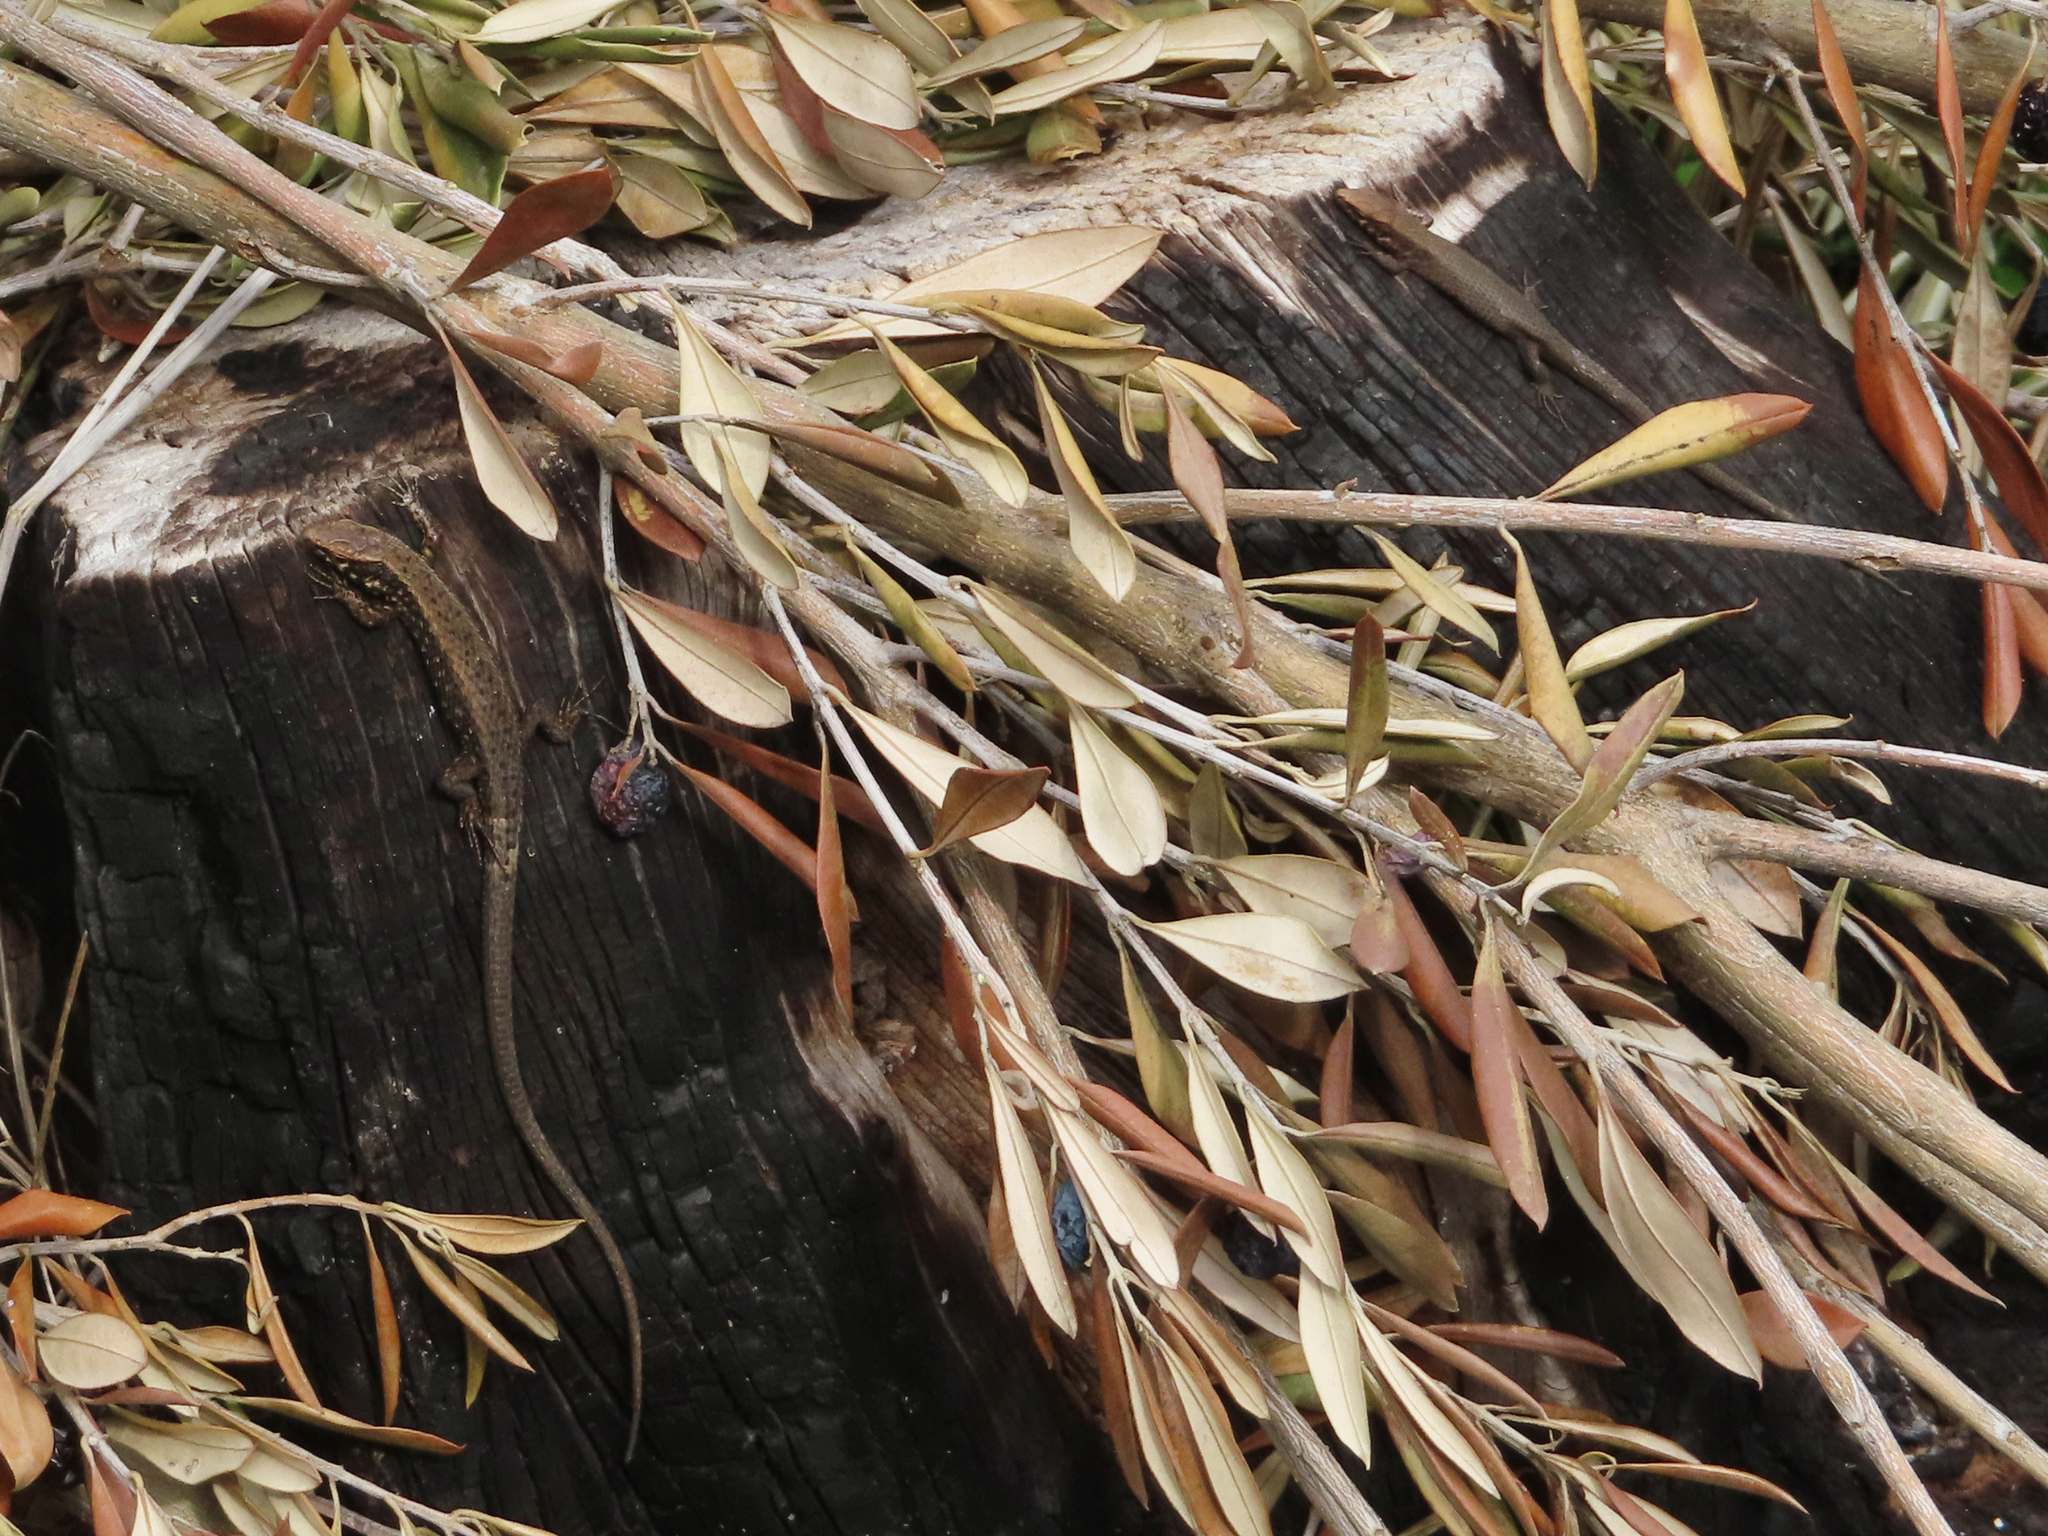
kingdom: Animalia
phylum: Chordata
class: Squamata
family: Lacertidae
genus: Algyroides
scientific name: Algyroides moreoticus
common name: Greek algyroides
